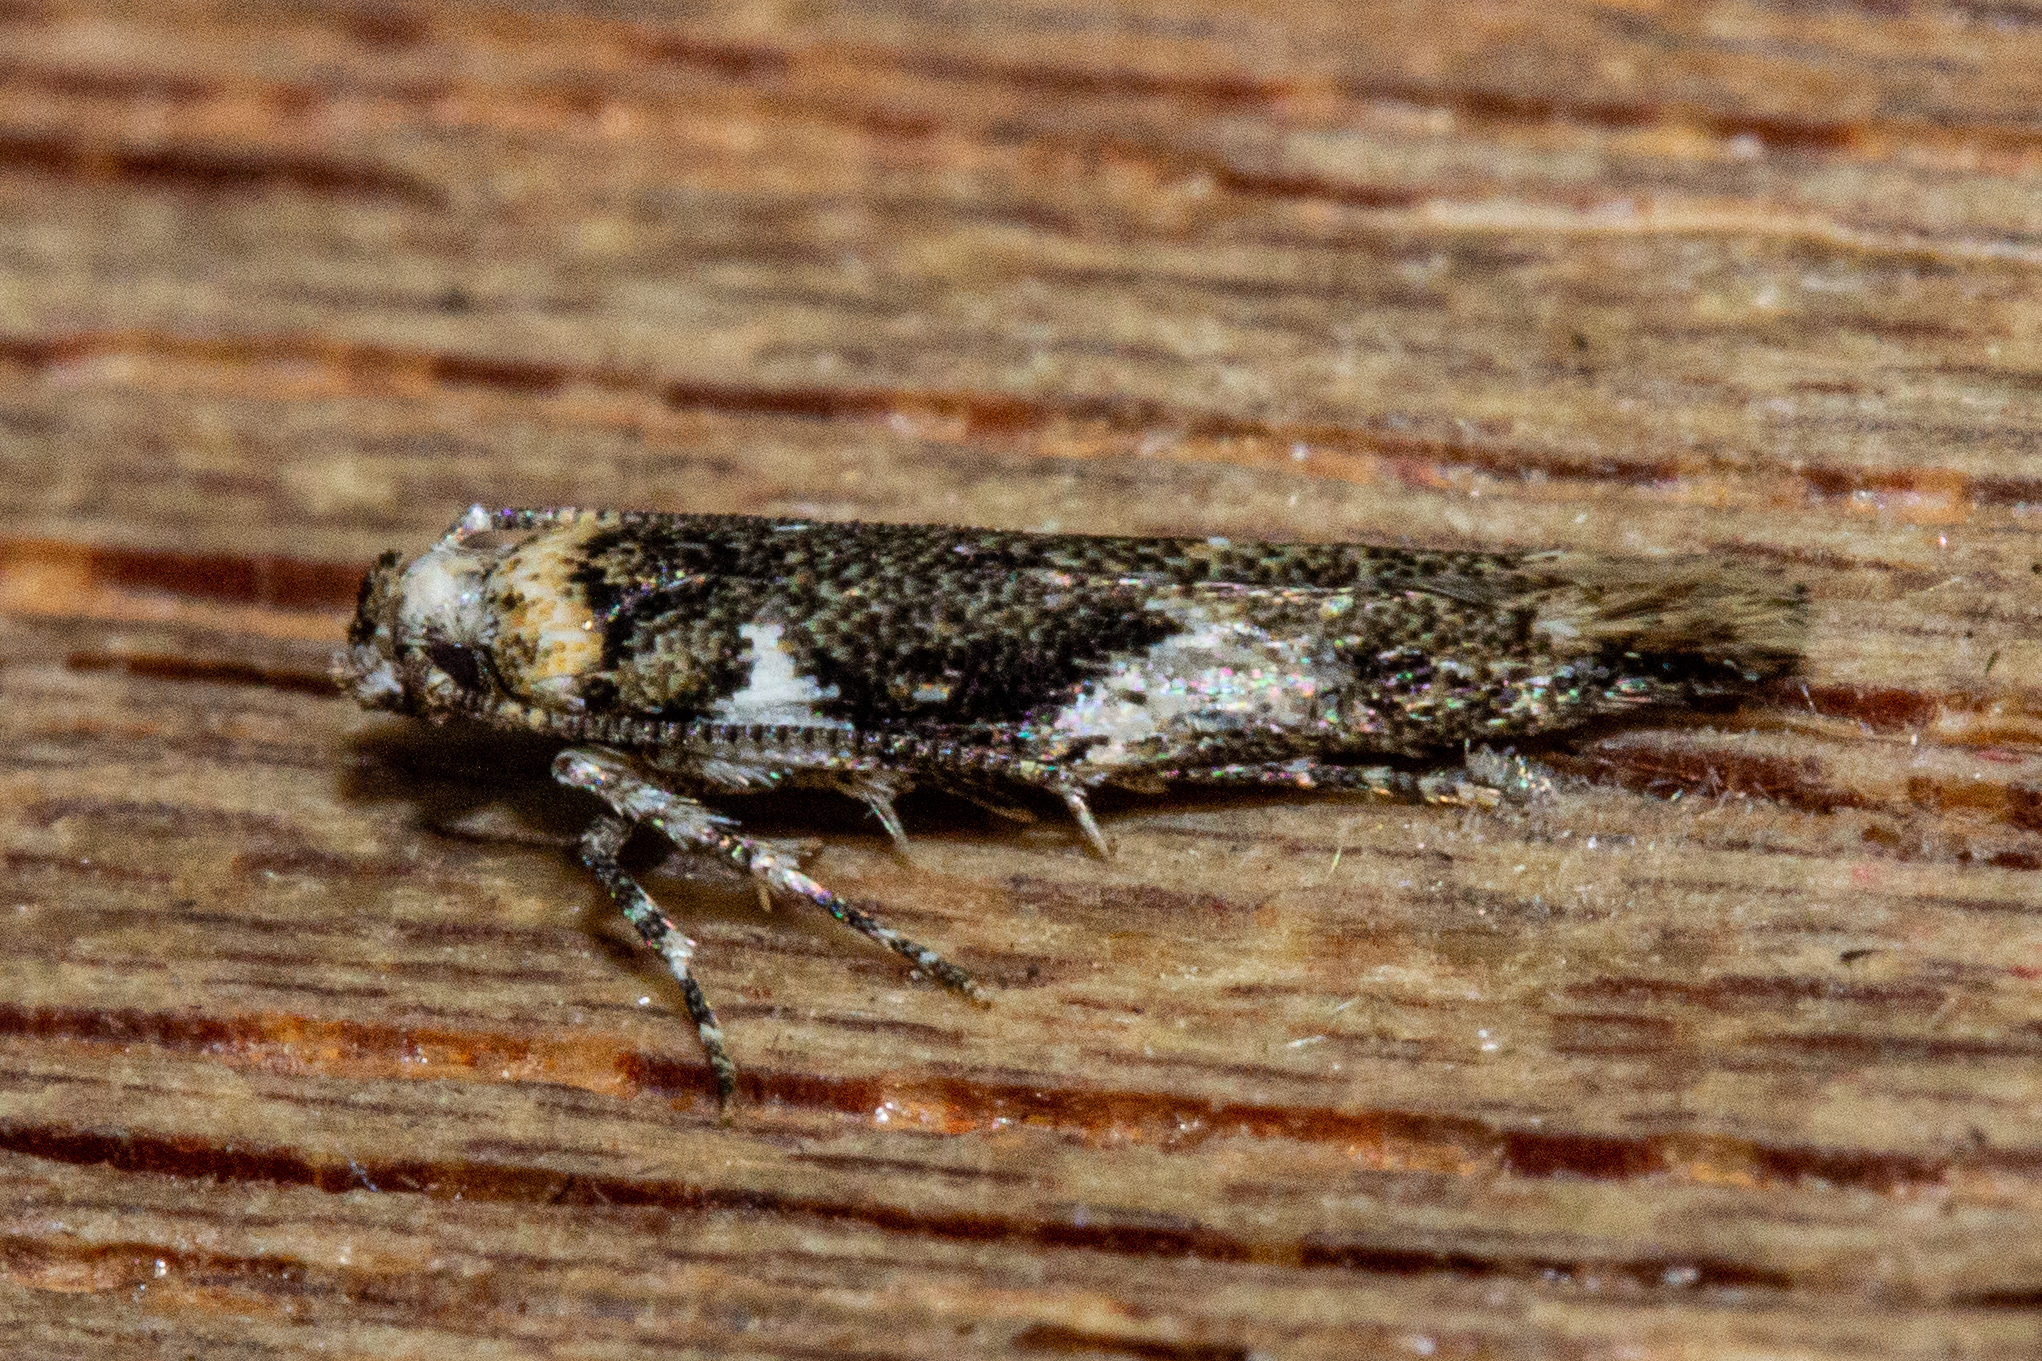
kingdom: Animalia
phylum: Arthropoda
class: Insecta
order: Lepidoptera
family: Cosmopterigidae
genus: Pyroderces
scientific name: Pyroderces deamatella
